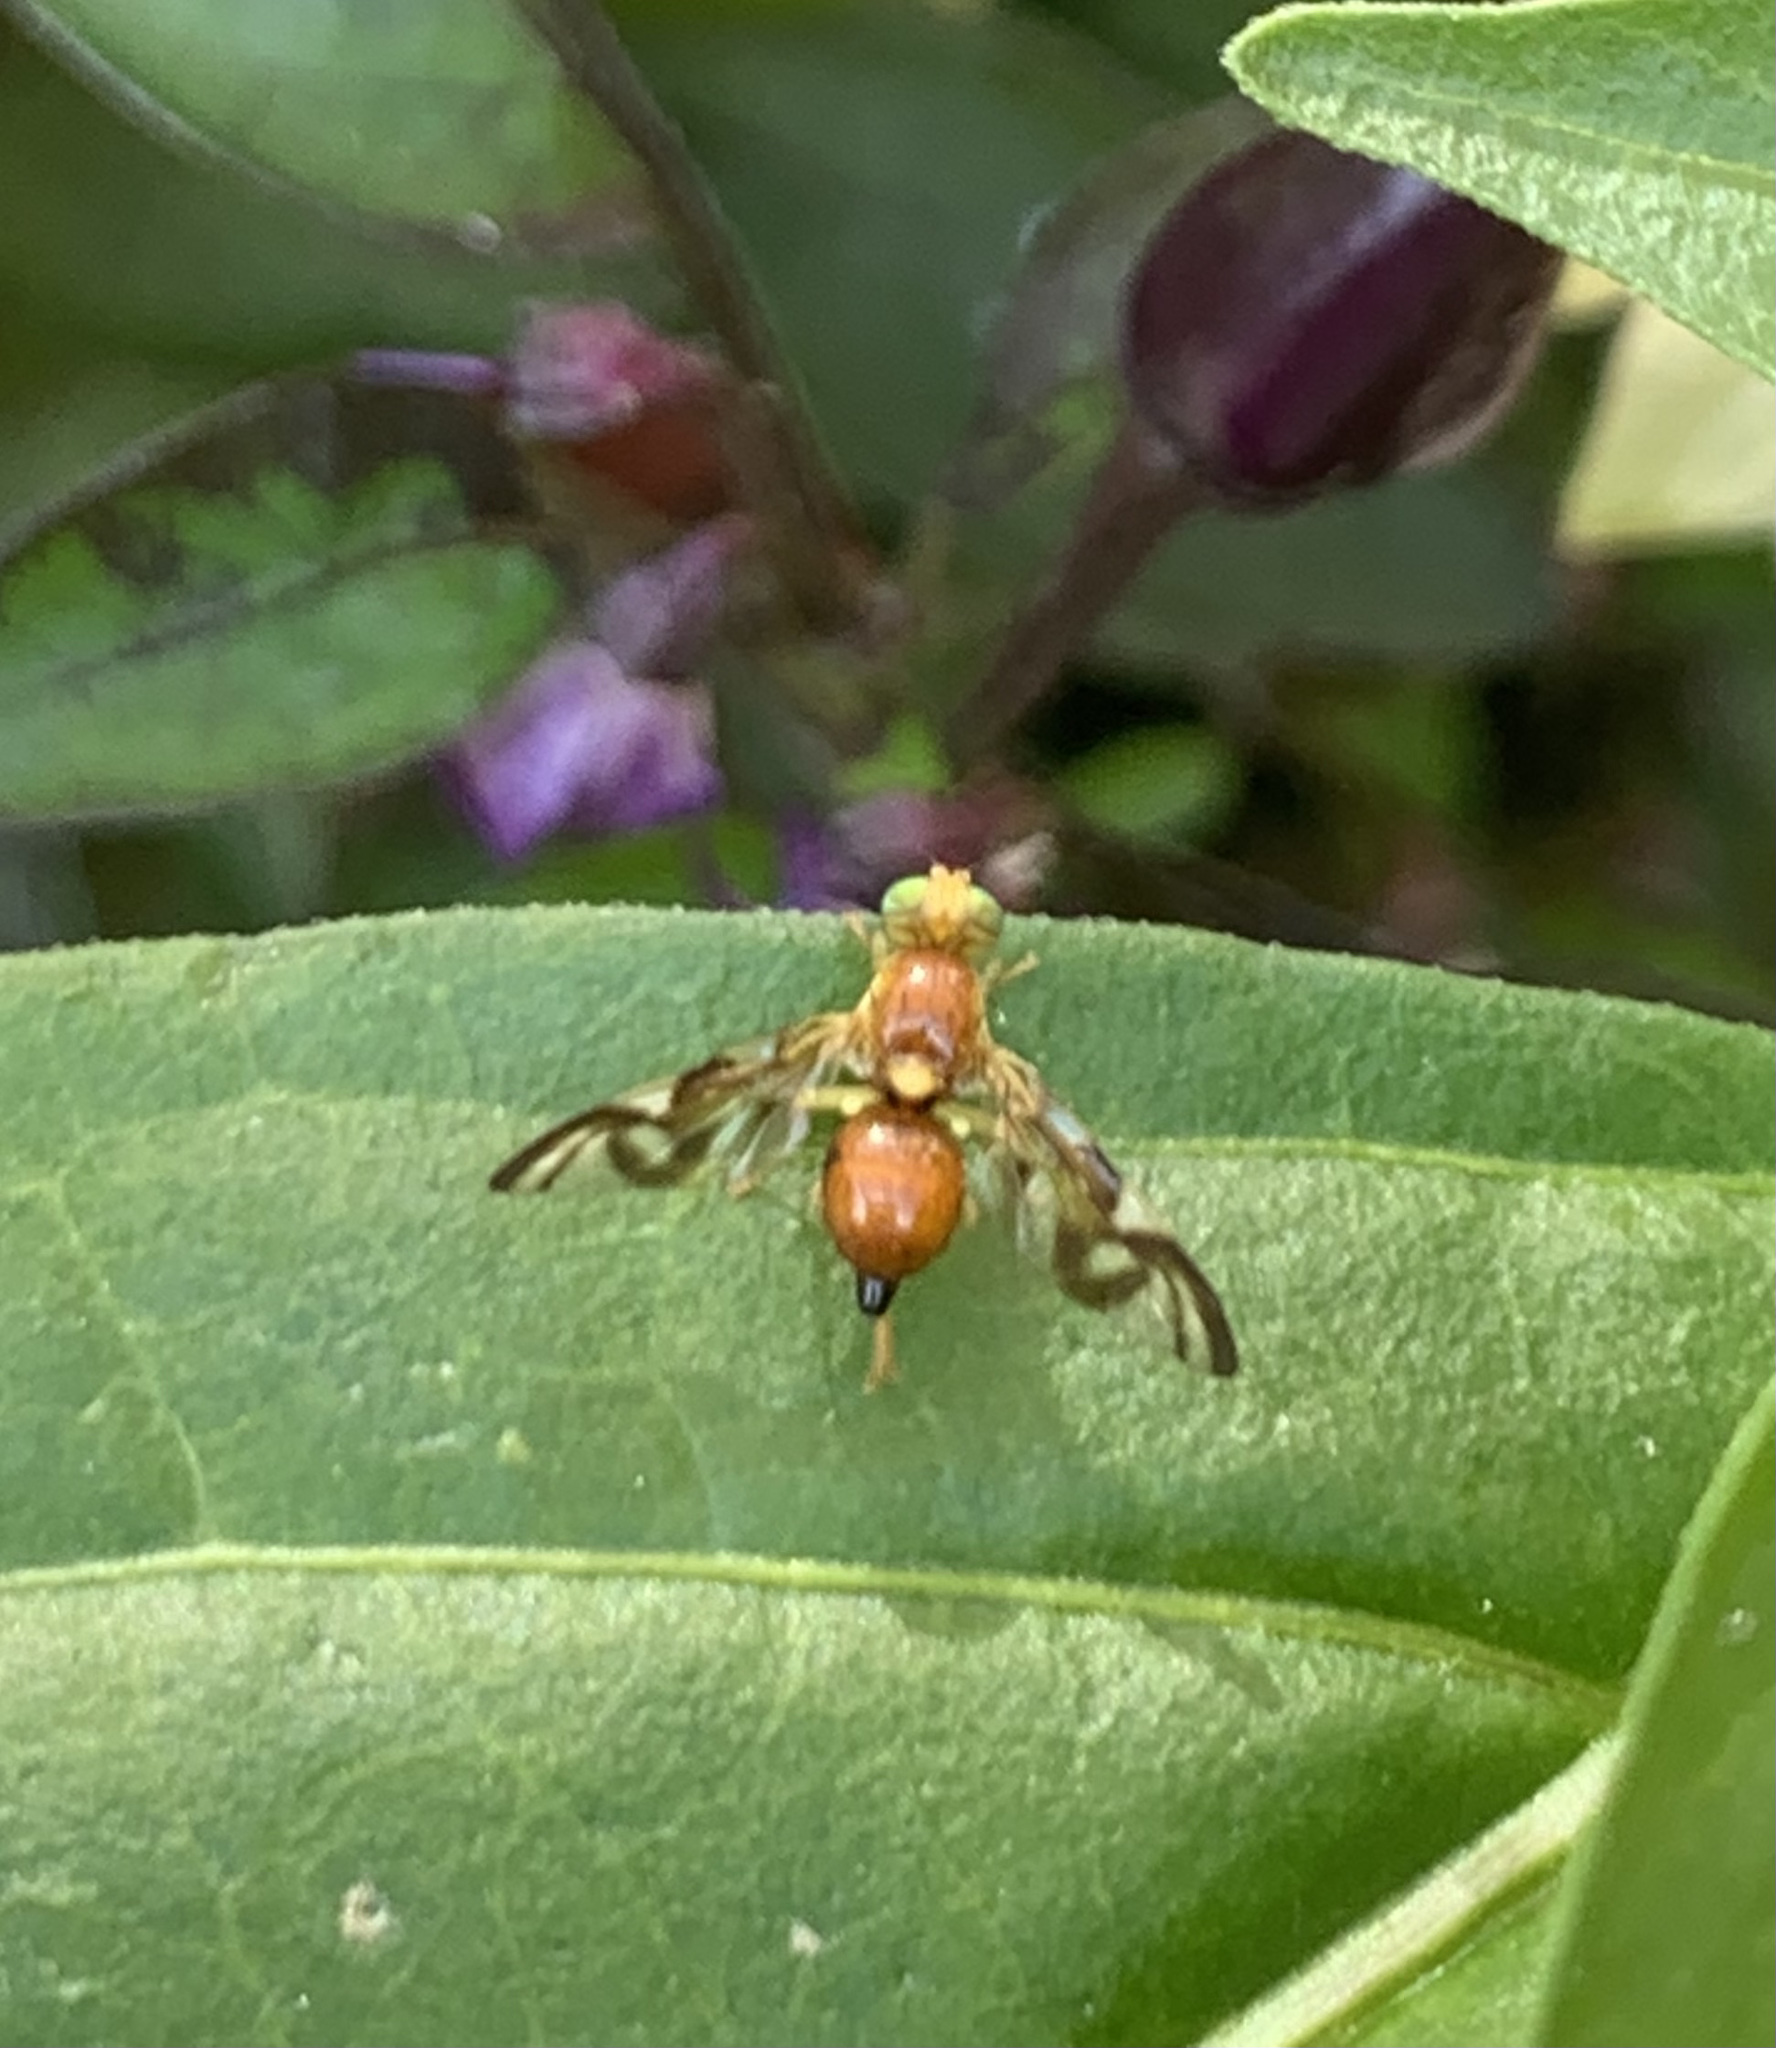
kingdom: Animalia
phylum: Arthropoda
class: Insecta
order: Diptera
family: Tephritidae
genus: Euleia
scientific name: Euleia heraclei
